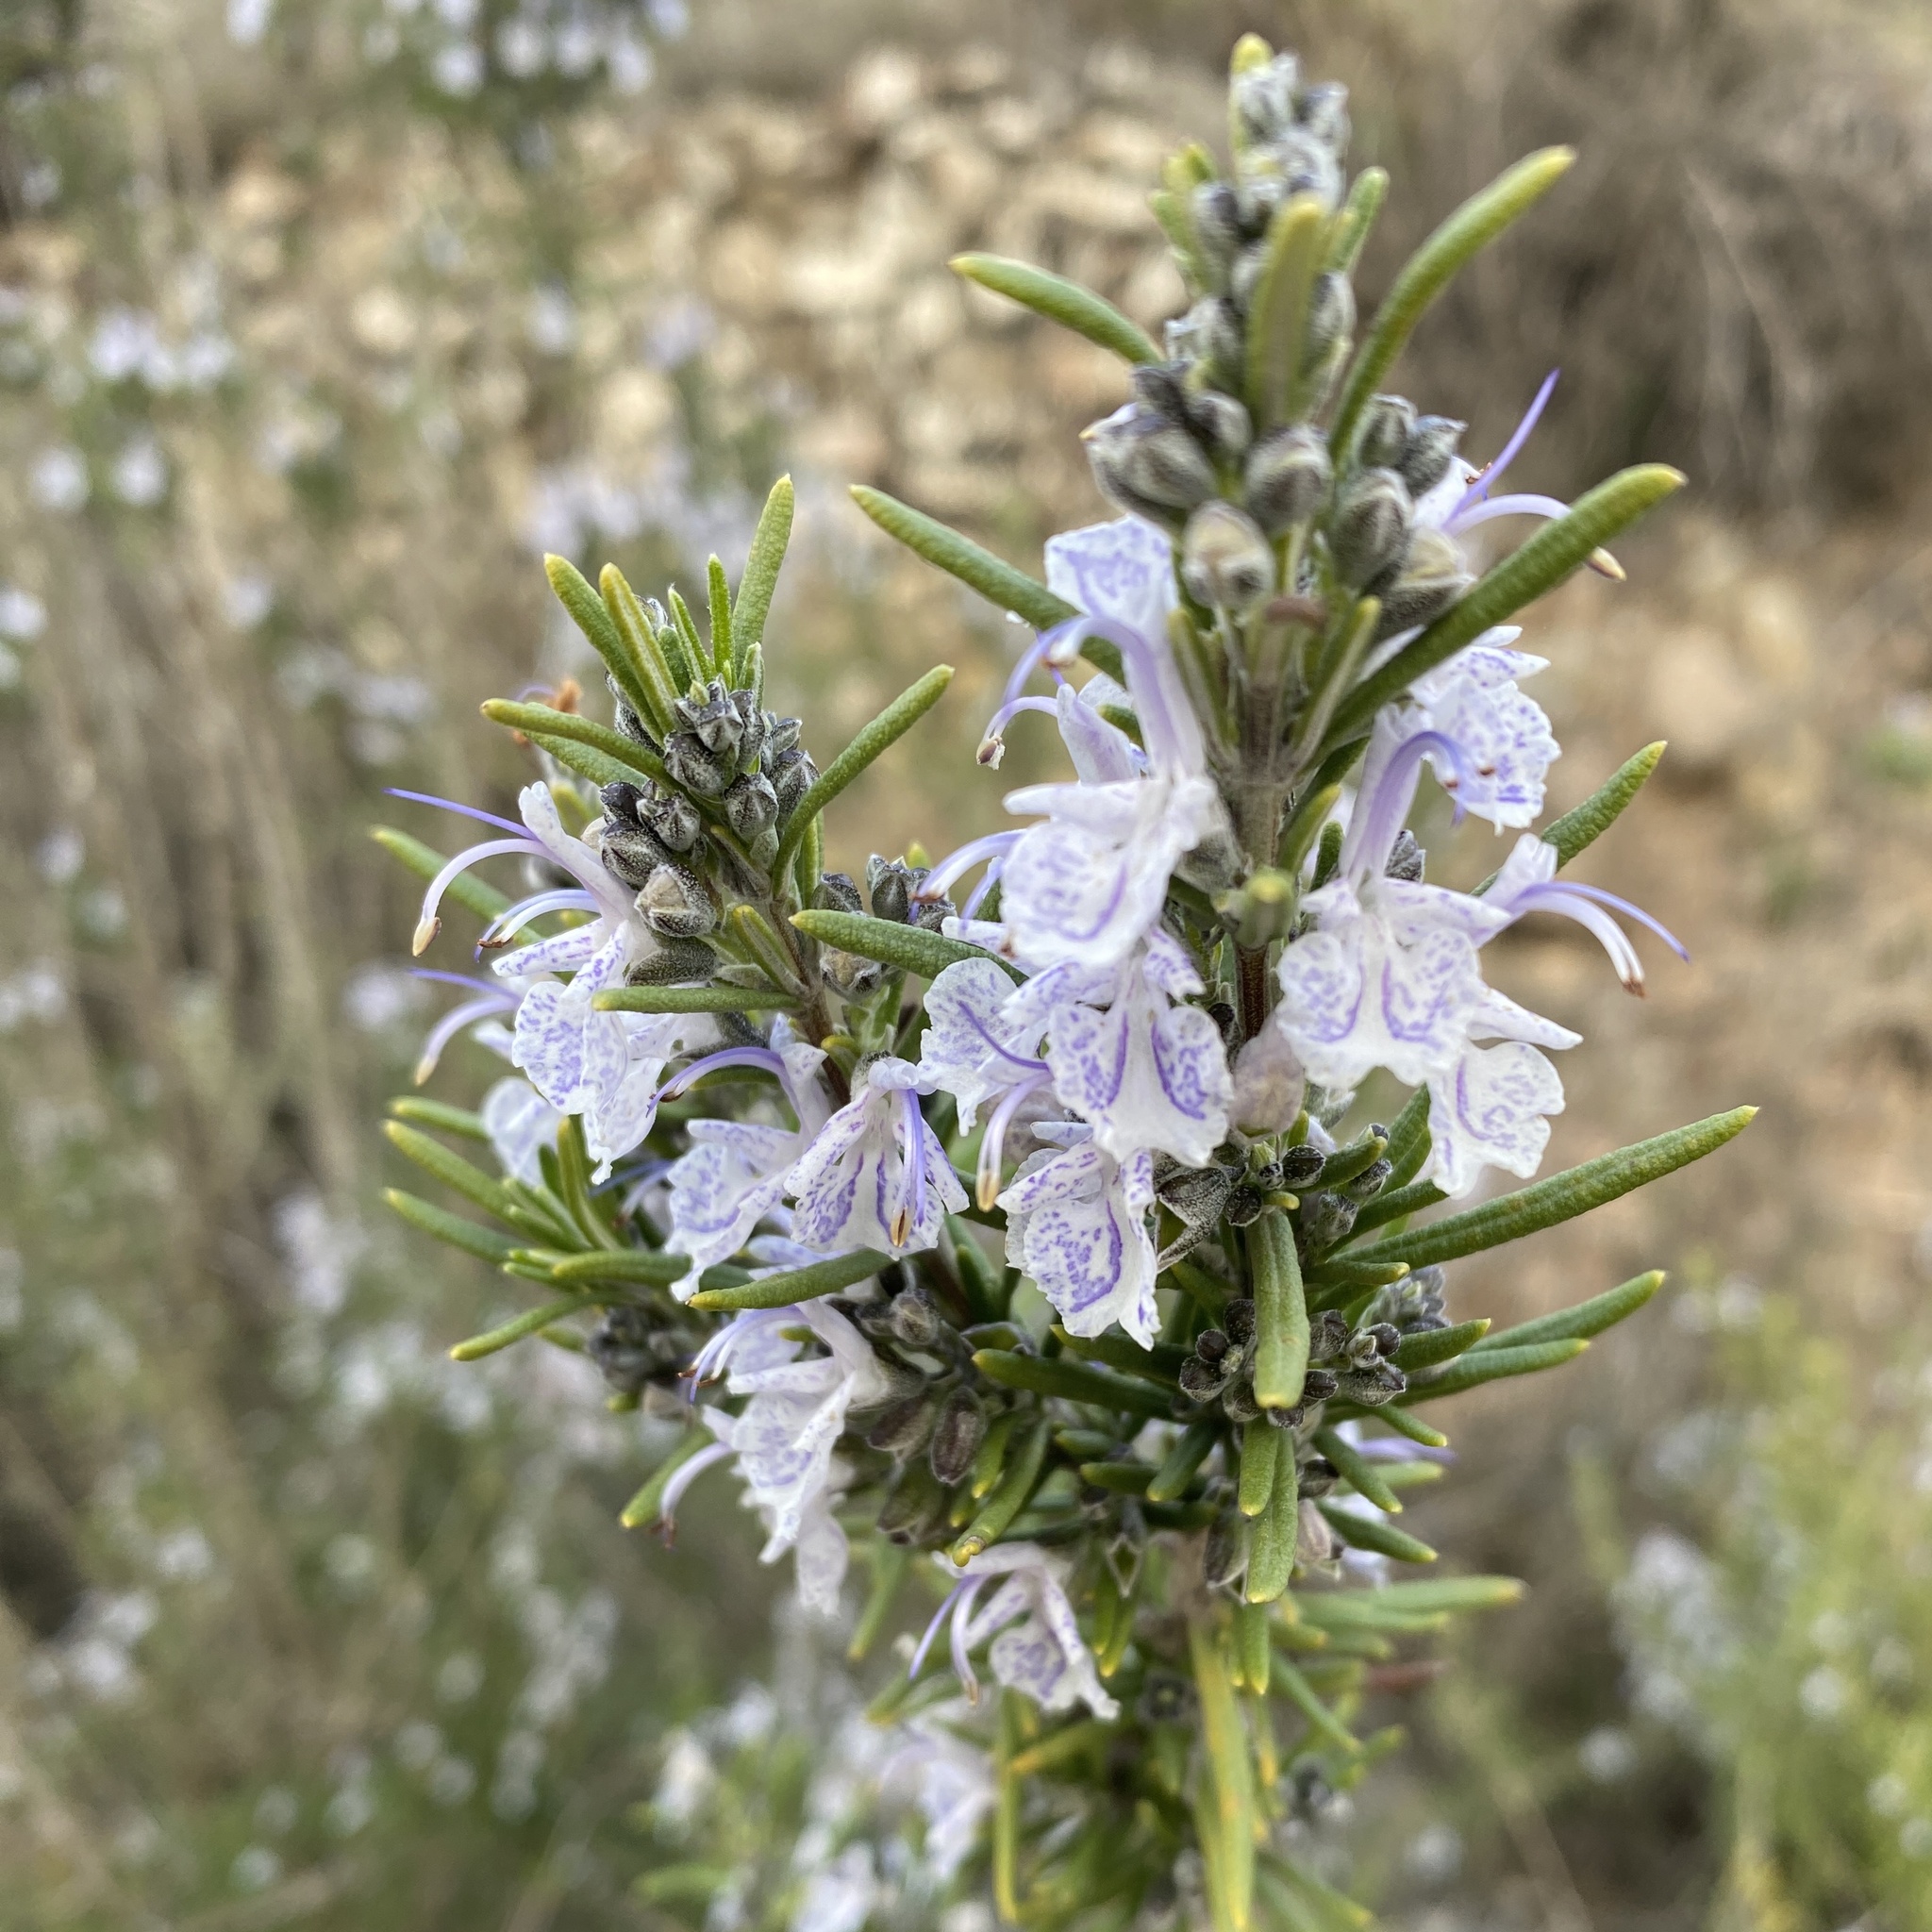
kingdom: Plantae
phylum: Tracheophyta
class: Magnoliopsida
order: Lamiales
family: Lamiaceae
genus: Salvia
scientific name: Salvia rosmarinus
